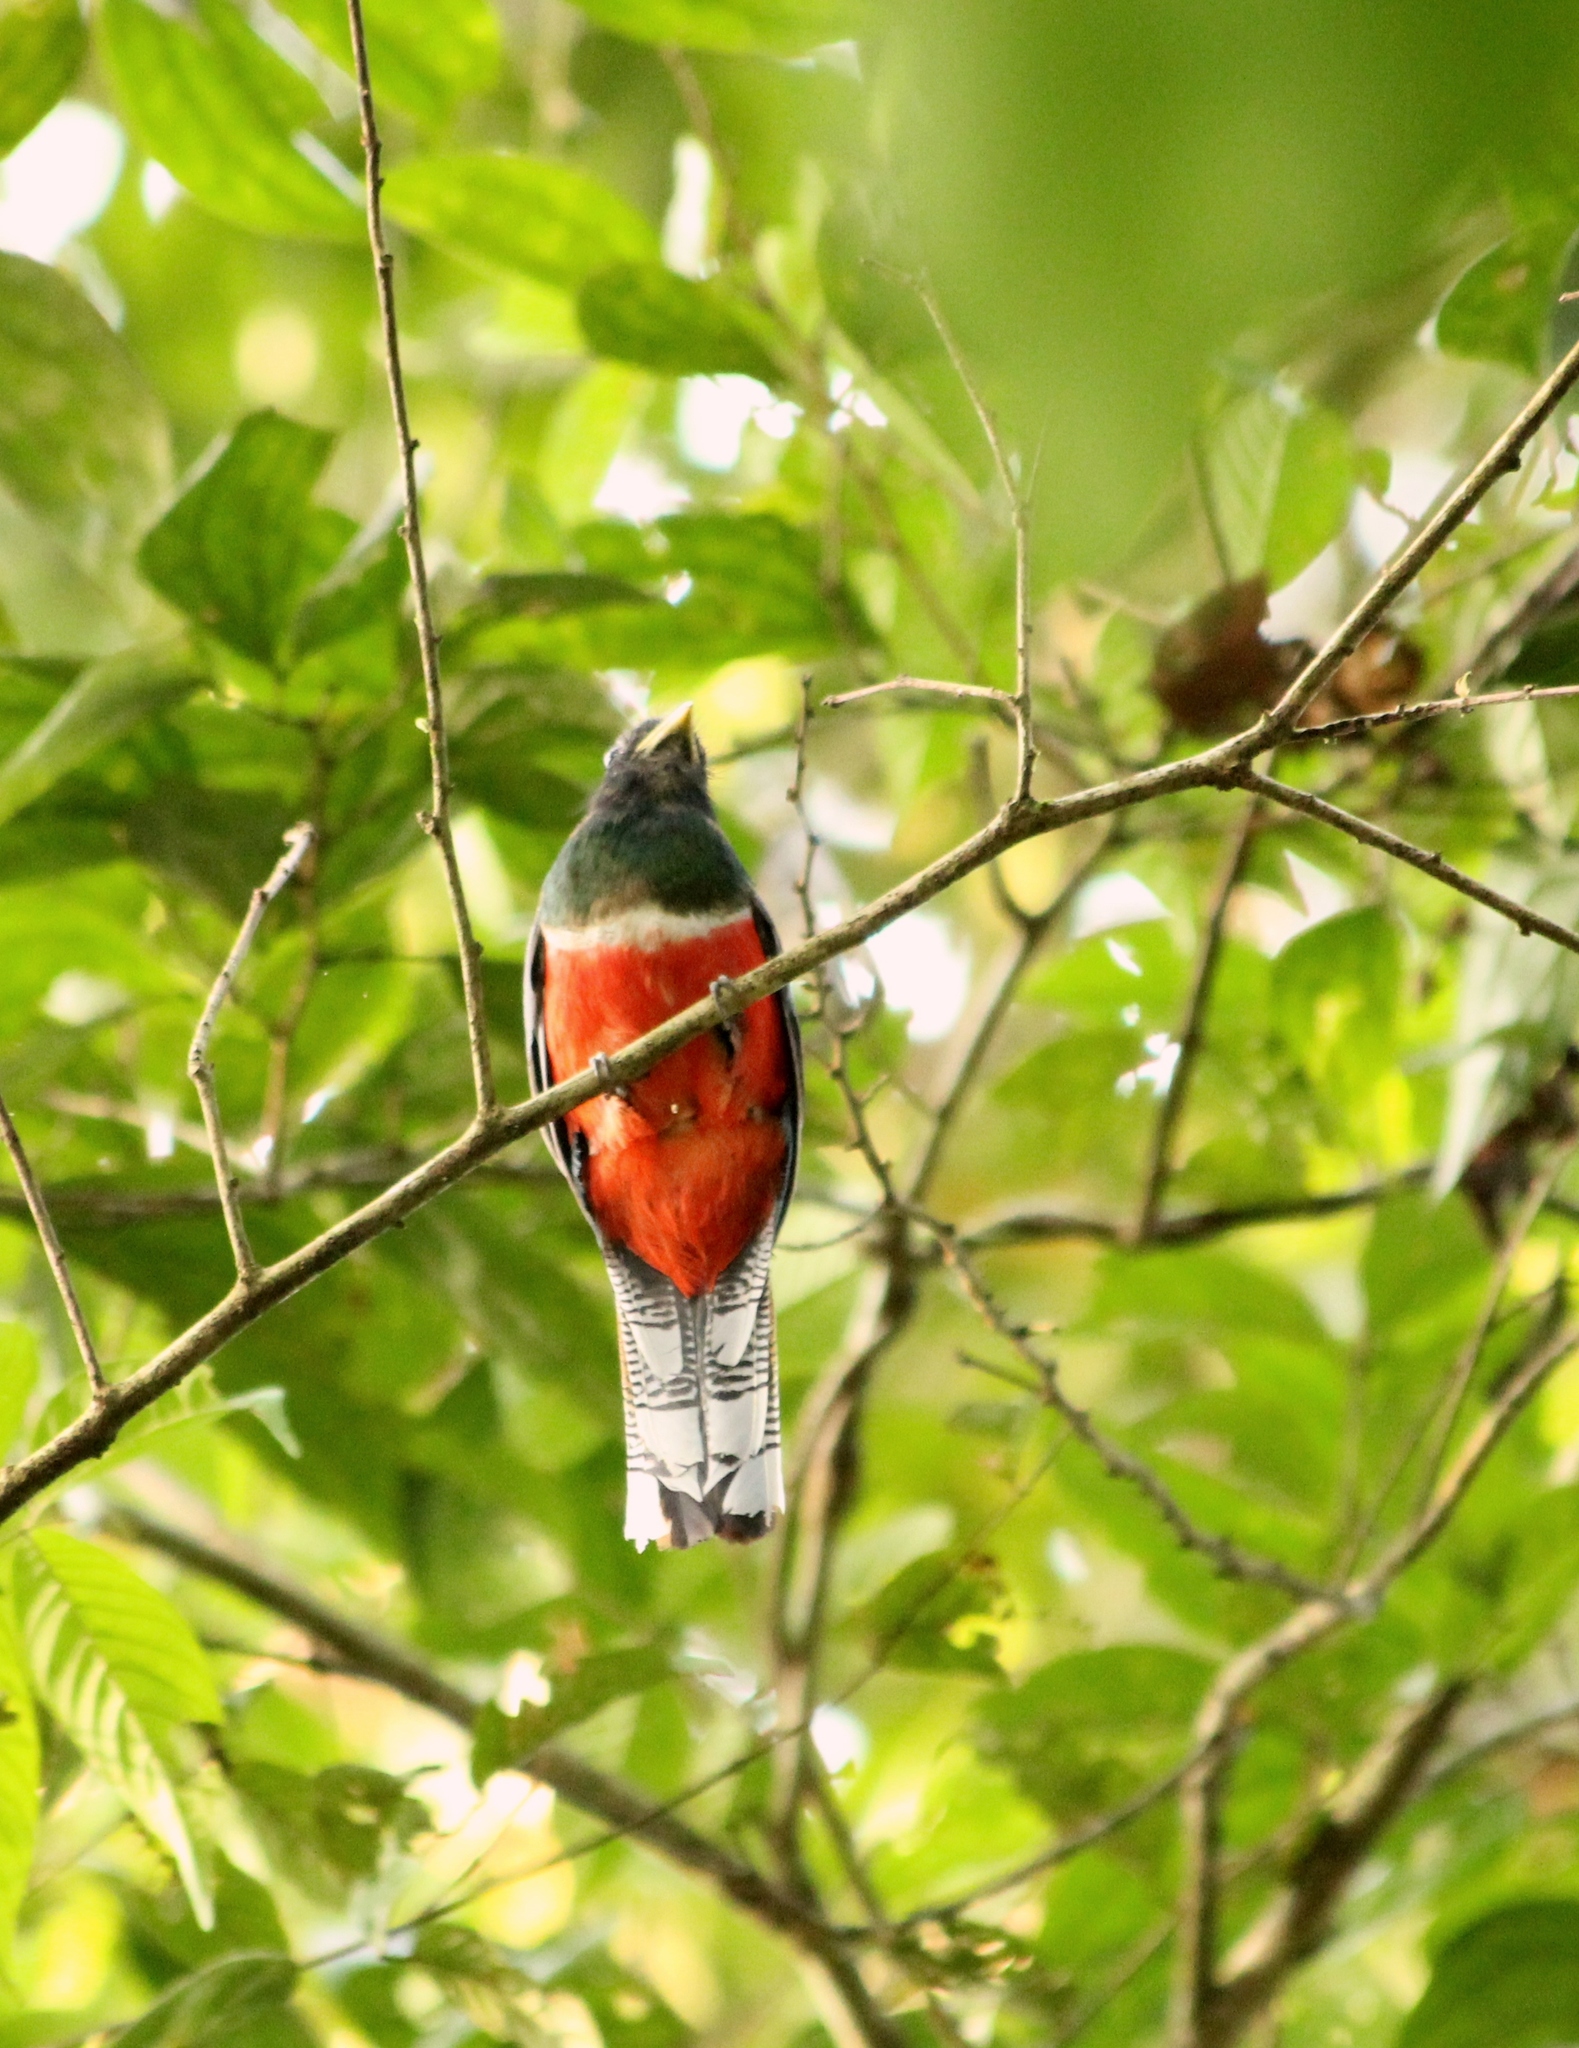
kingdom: Animalia
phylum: Chordata
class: Aves
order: Trogoniformes
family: Trogonidae
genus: Trogon
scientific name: Trogon collaris
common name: Collared trogon
